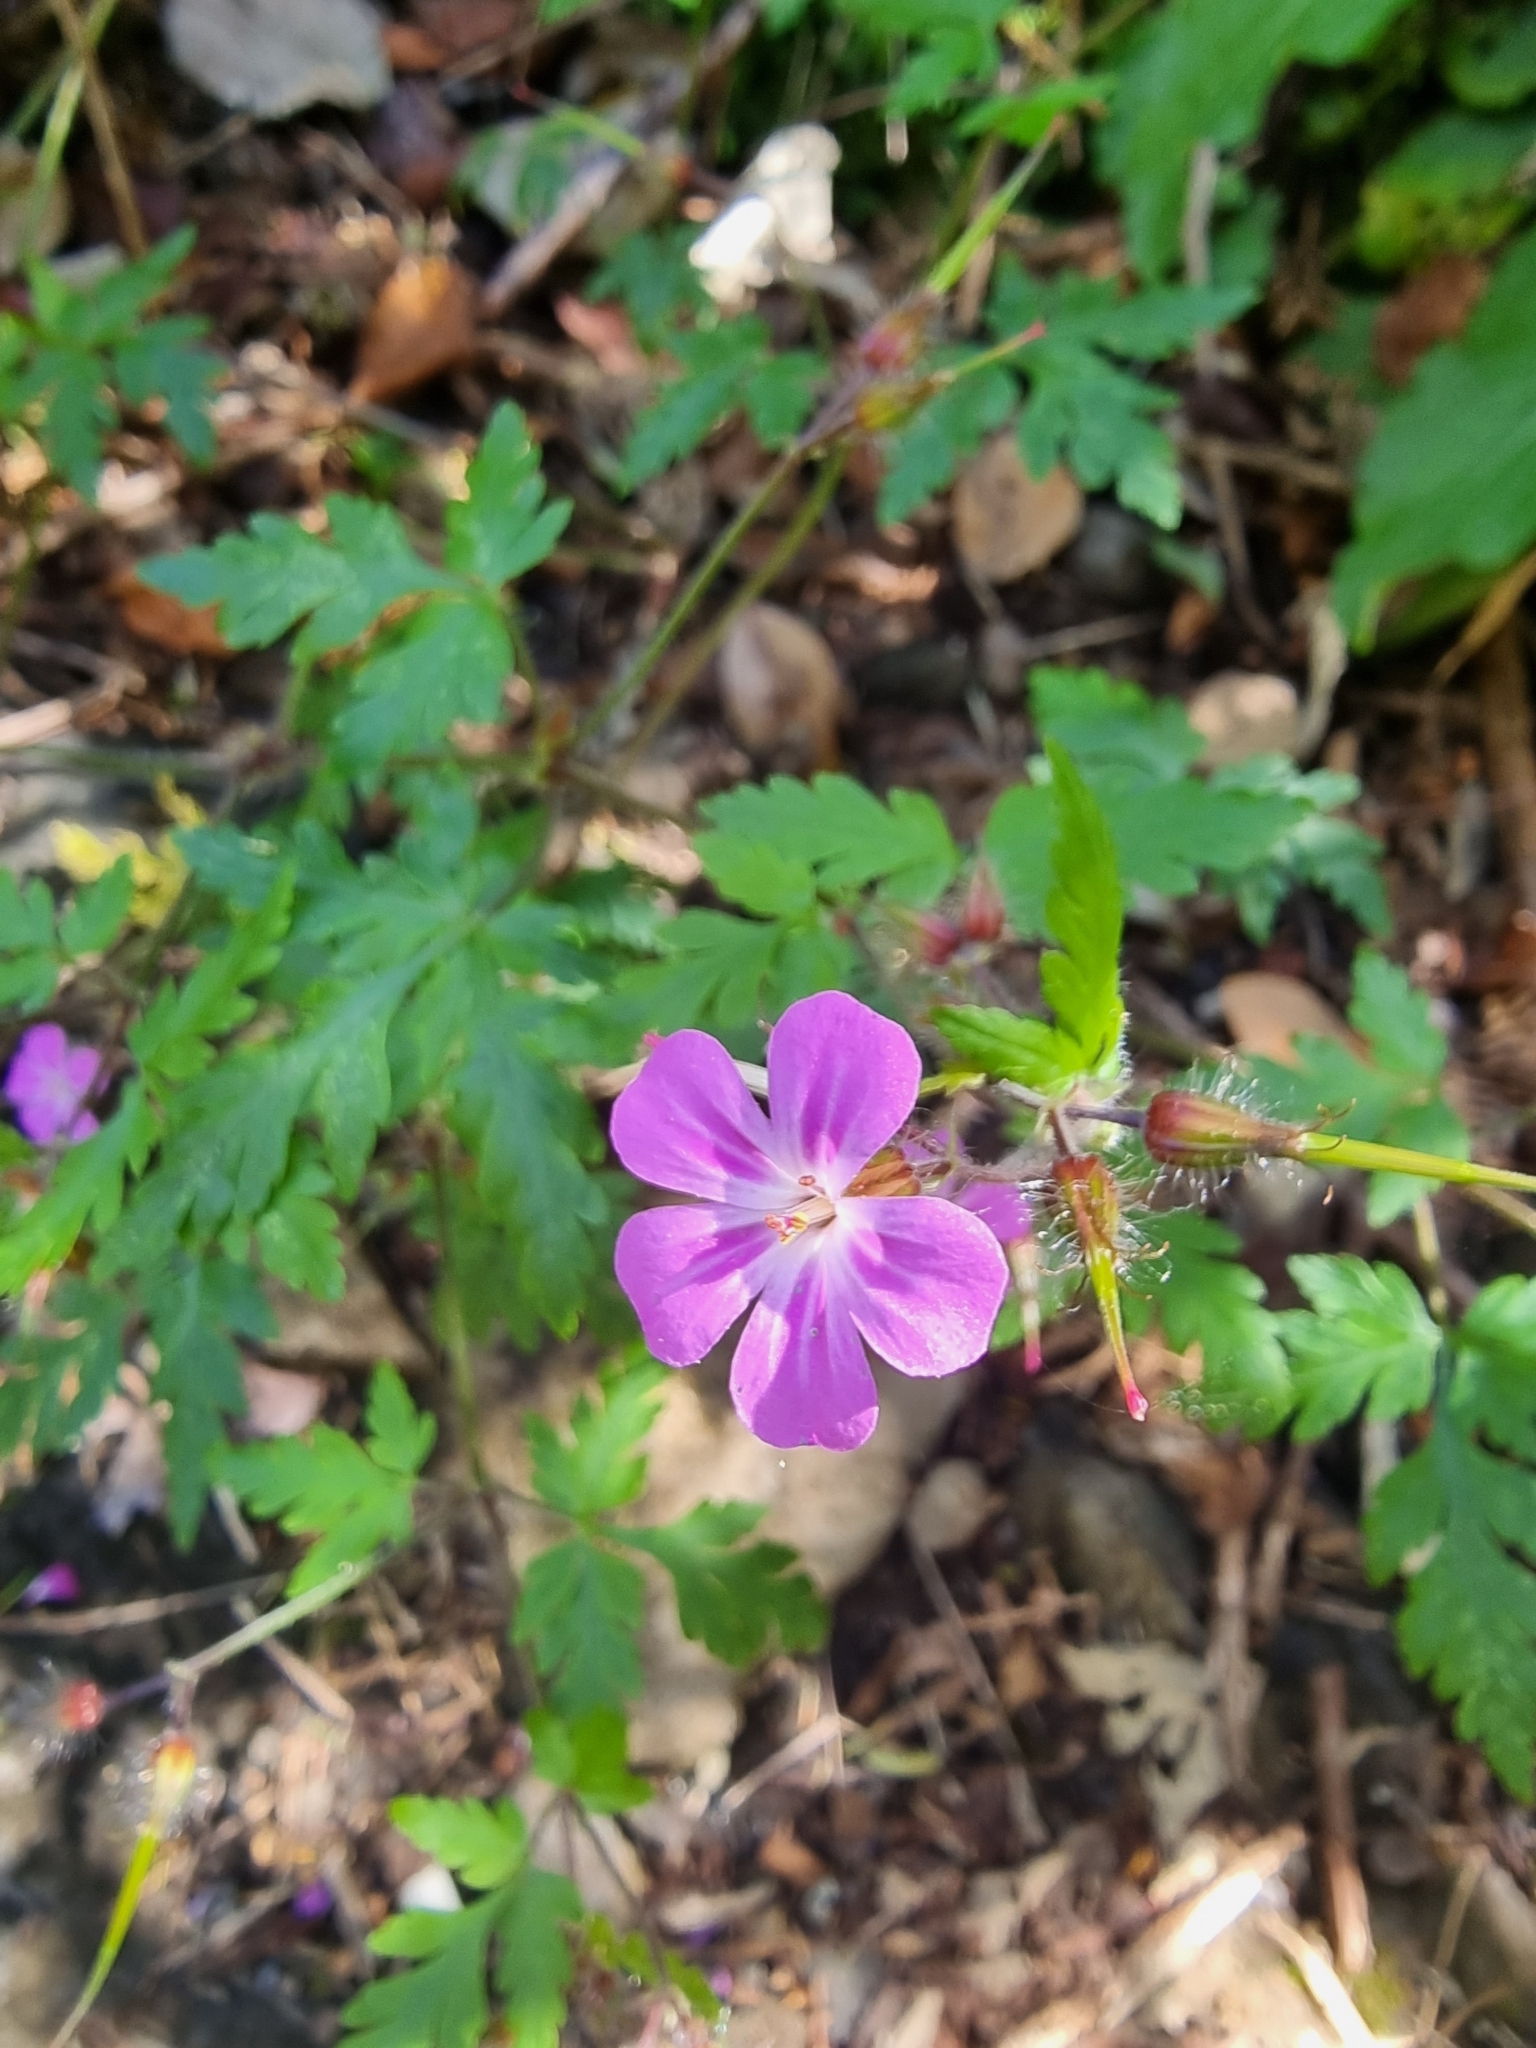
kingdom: Plantae
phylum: Tracheophyta
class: Magnoliopsida
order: Geraniales
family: Geraniaceae
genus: Geranium
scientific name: Geranium robertianum
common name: Herb-robert
